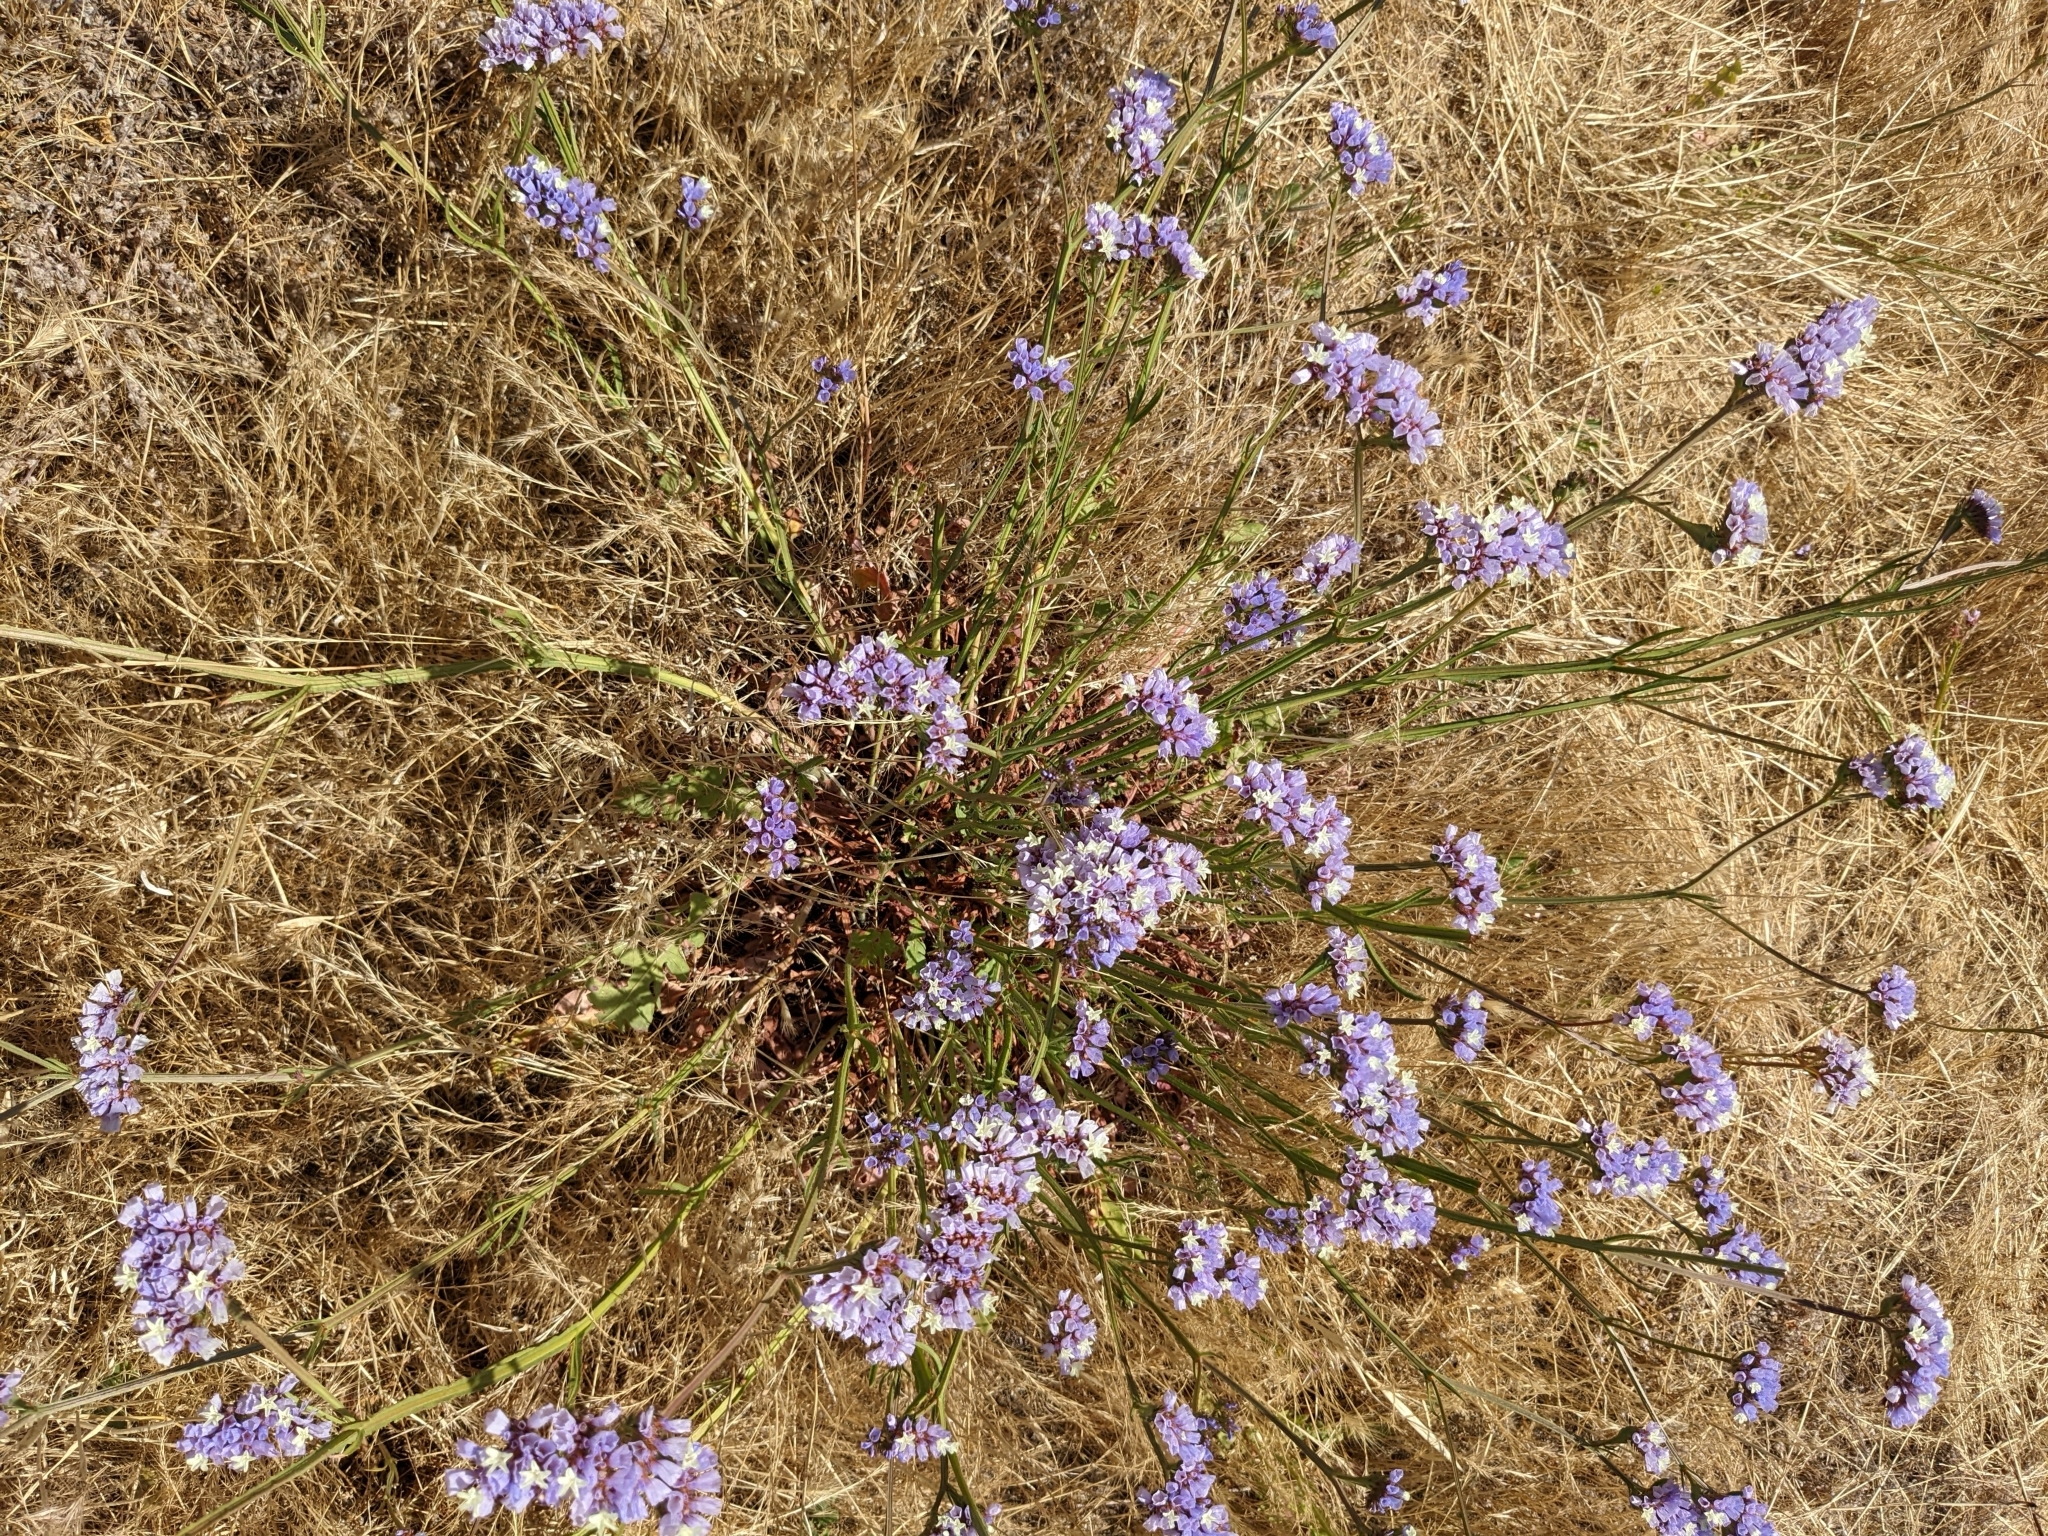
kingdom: Plantae
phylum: Tracheophyta
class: Magnoliopsida
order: Caryophyllales
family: Plumbaginaceae
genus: Limonium
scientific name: Limonium sinuatum
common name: Statice
